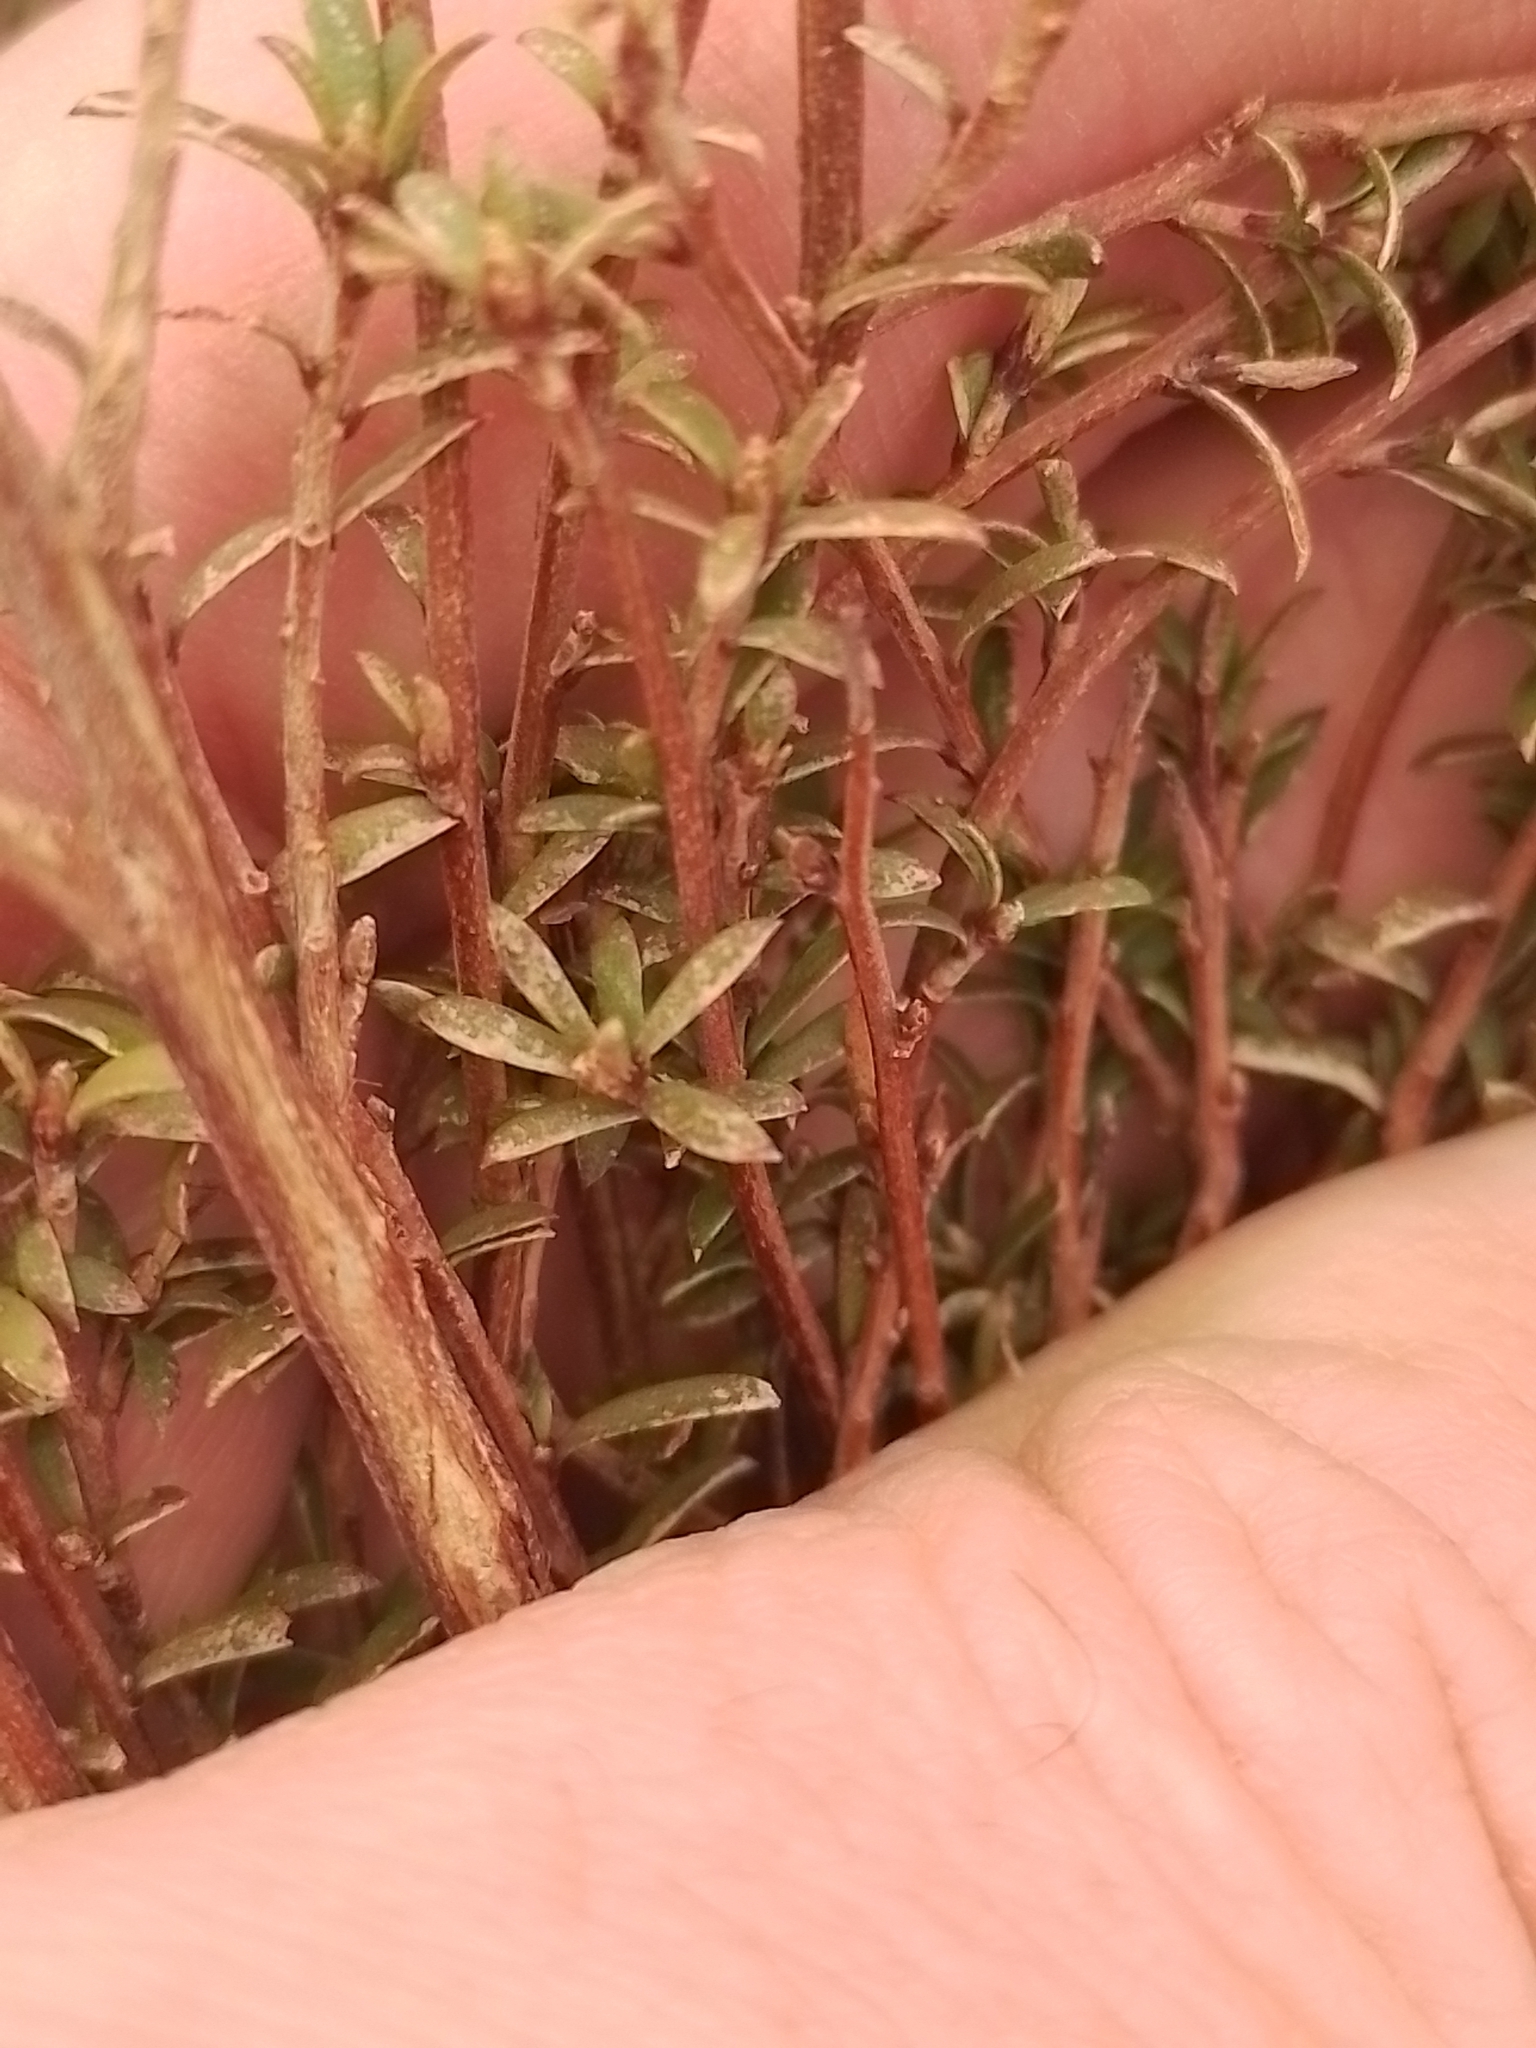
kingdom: Plantae
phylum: Tracheophyta
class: Magnoliopsida
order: Myrtales
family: Myrtaceae
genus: Kunzea
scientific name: Kunzea robusta
